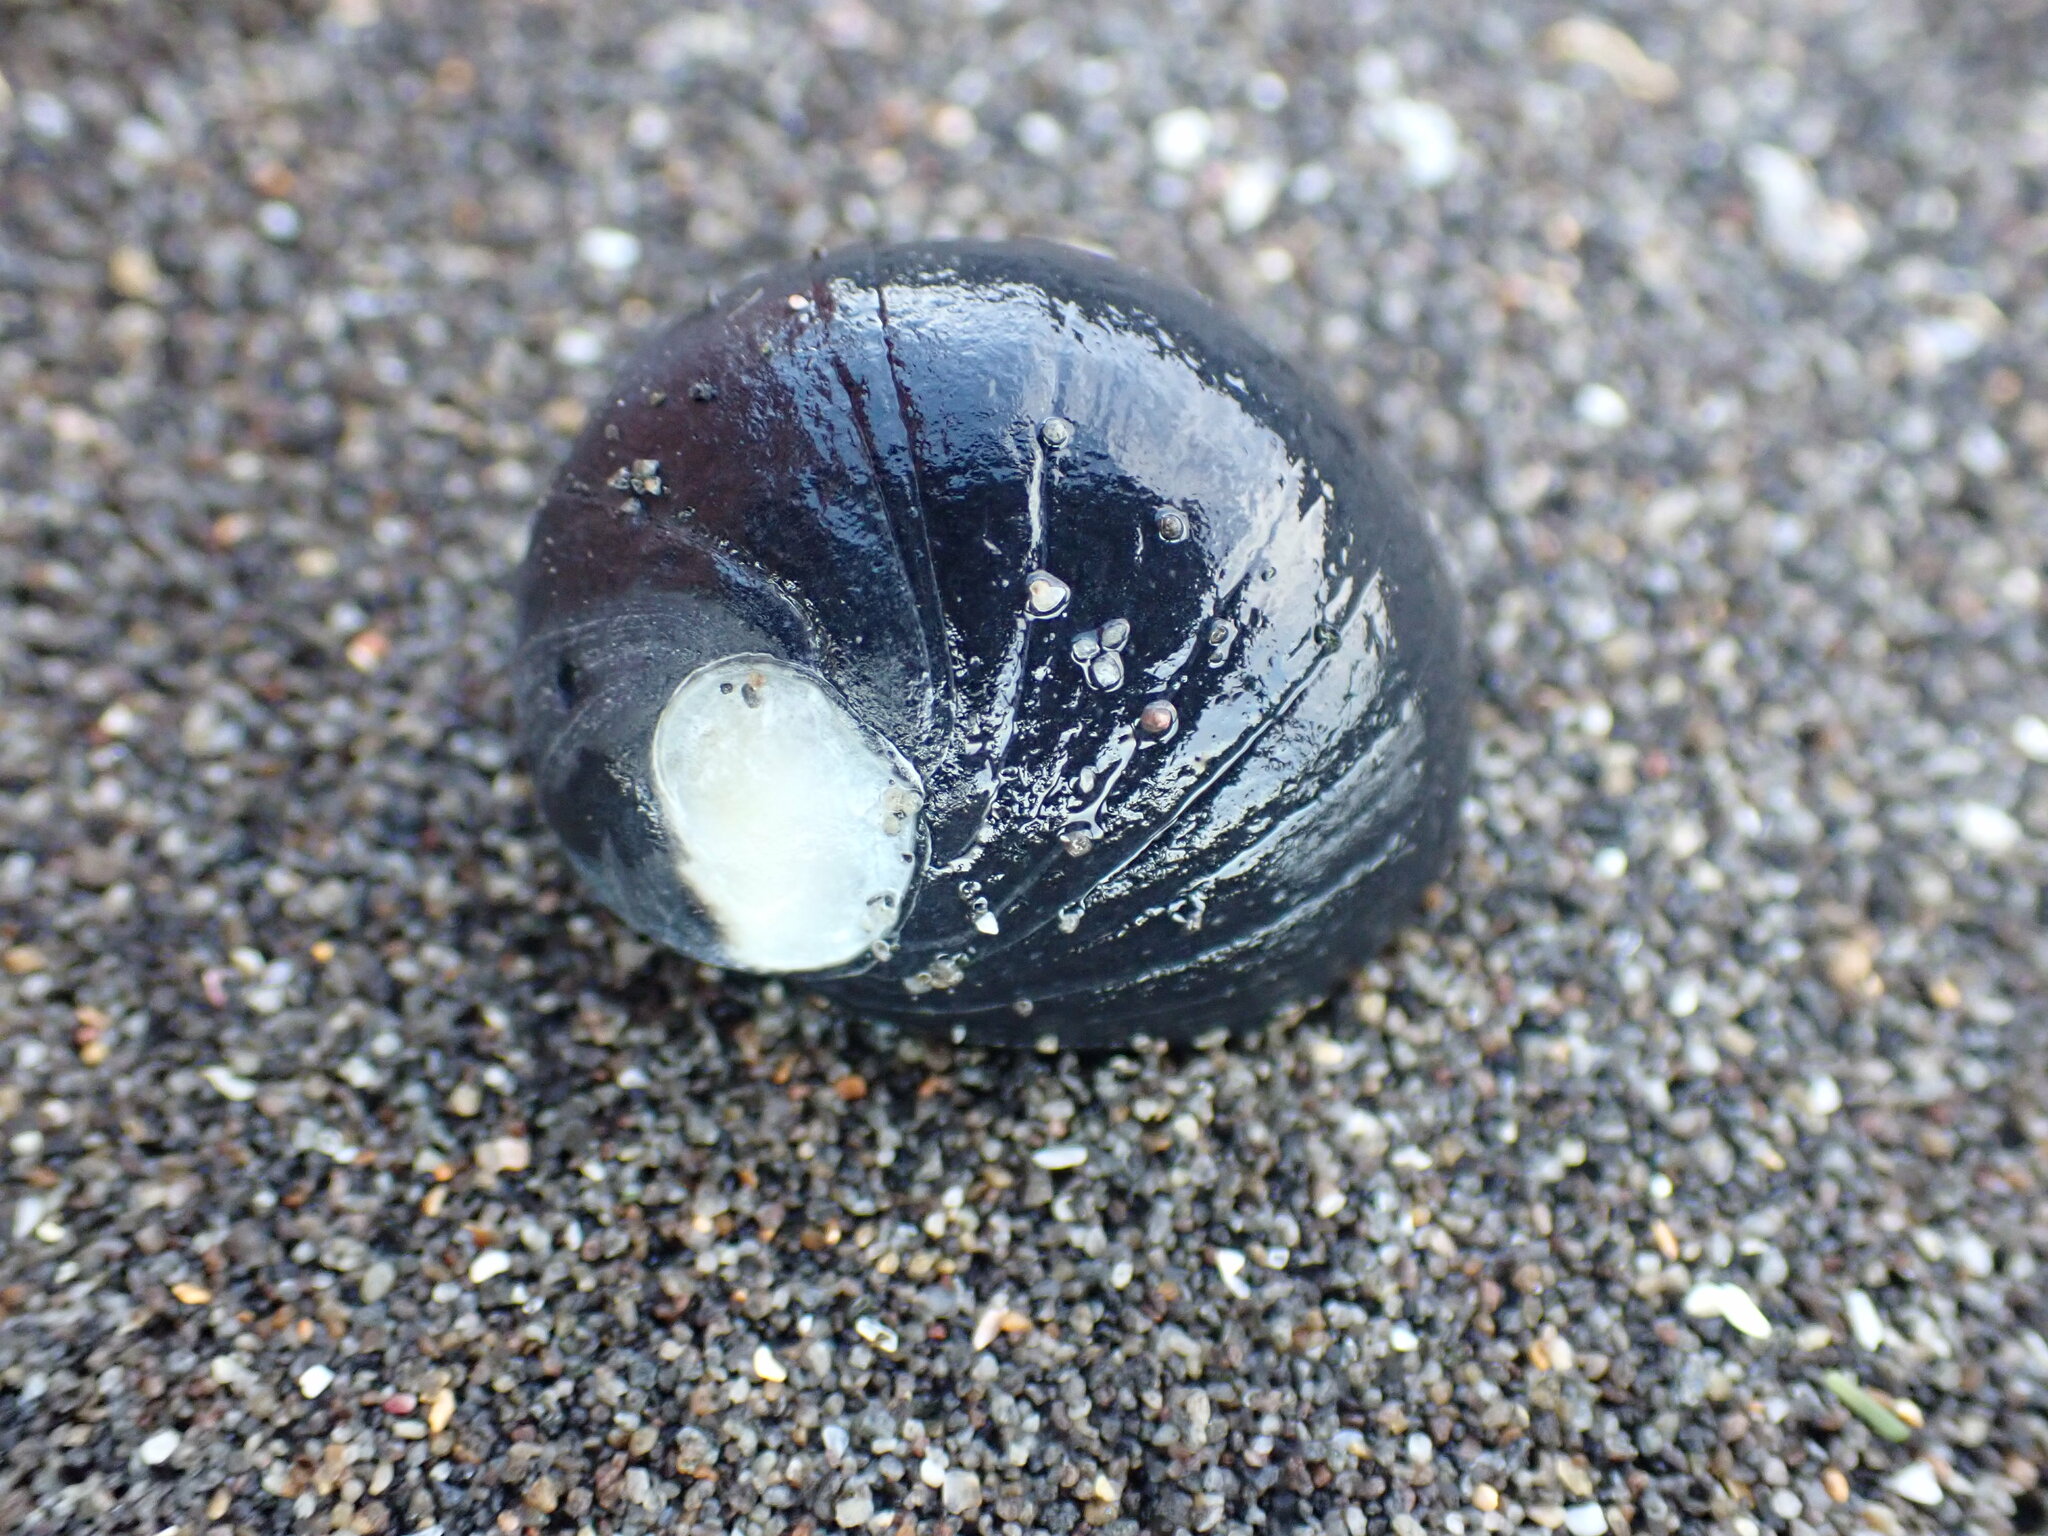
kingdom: Animalia
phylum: Mollusca
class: Gastropoda
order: Cycloneritida
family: Neritidae
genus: Nerita
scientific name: Nerita melanotragus
